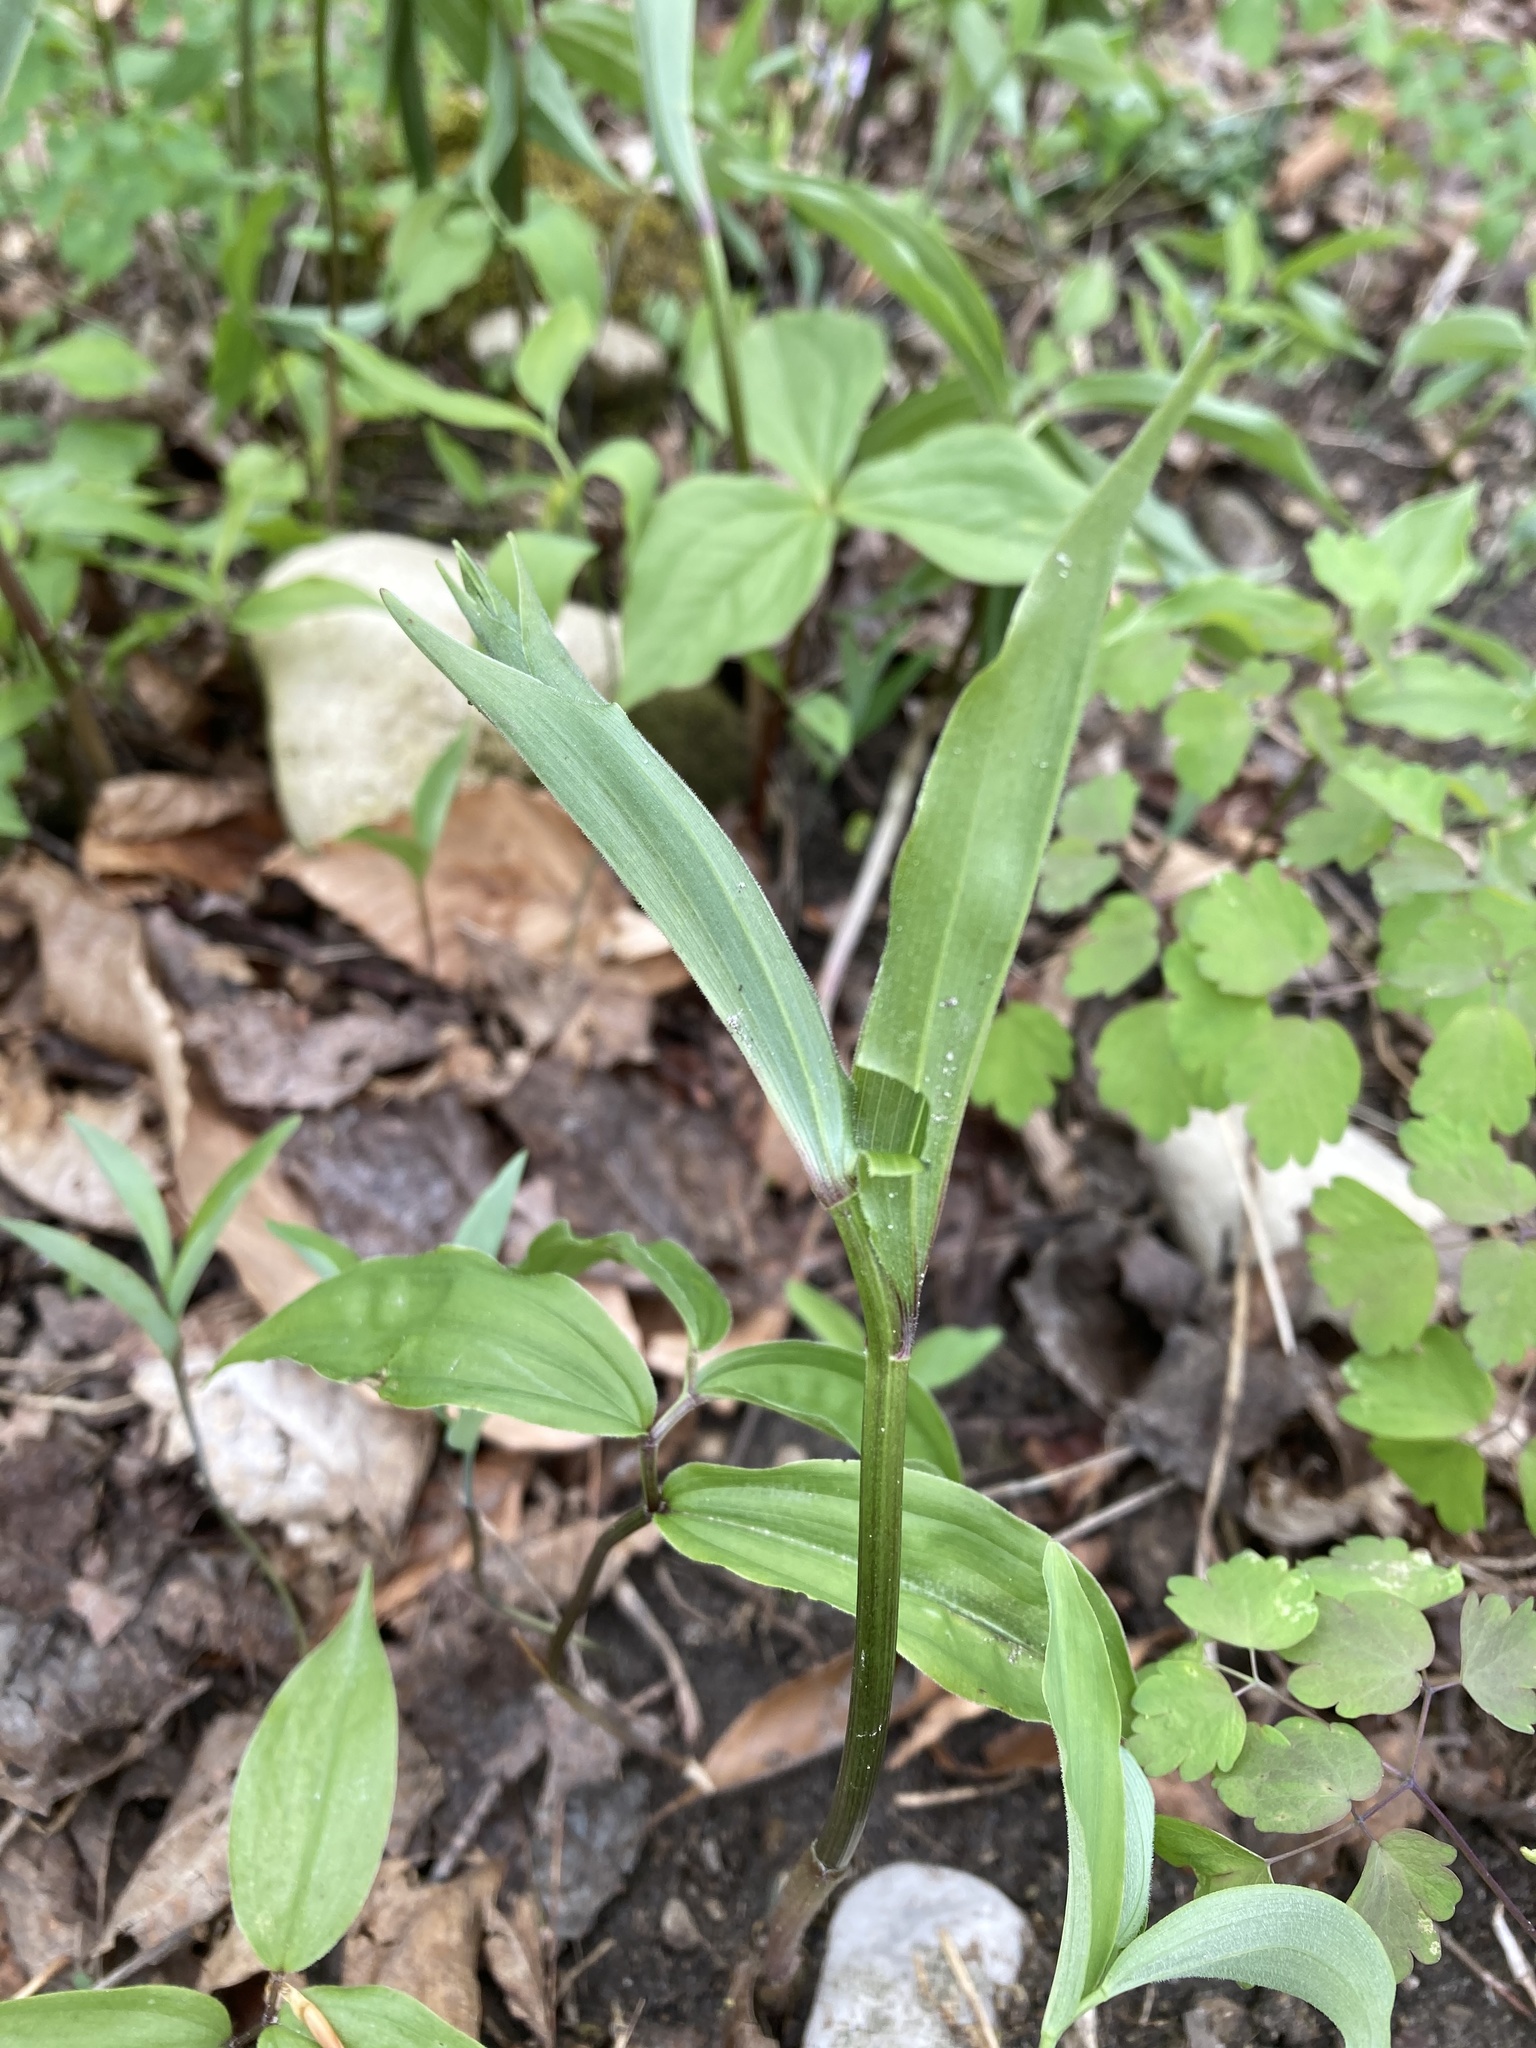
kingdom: Plantae
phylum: Tracheophyta
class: Liliopsida
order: Asparagales
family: Asparagaceae
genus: Maianthemum
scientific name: Maianthemum racemosum
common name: False spikenard
